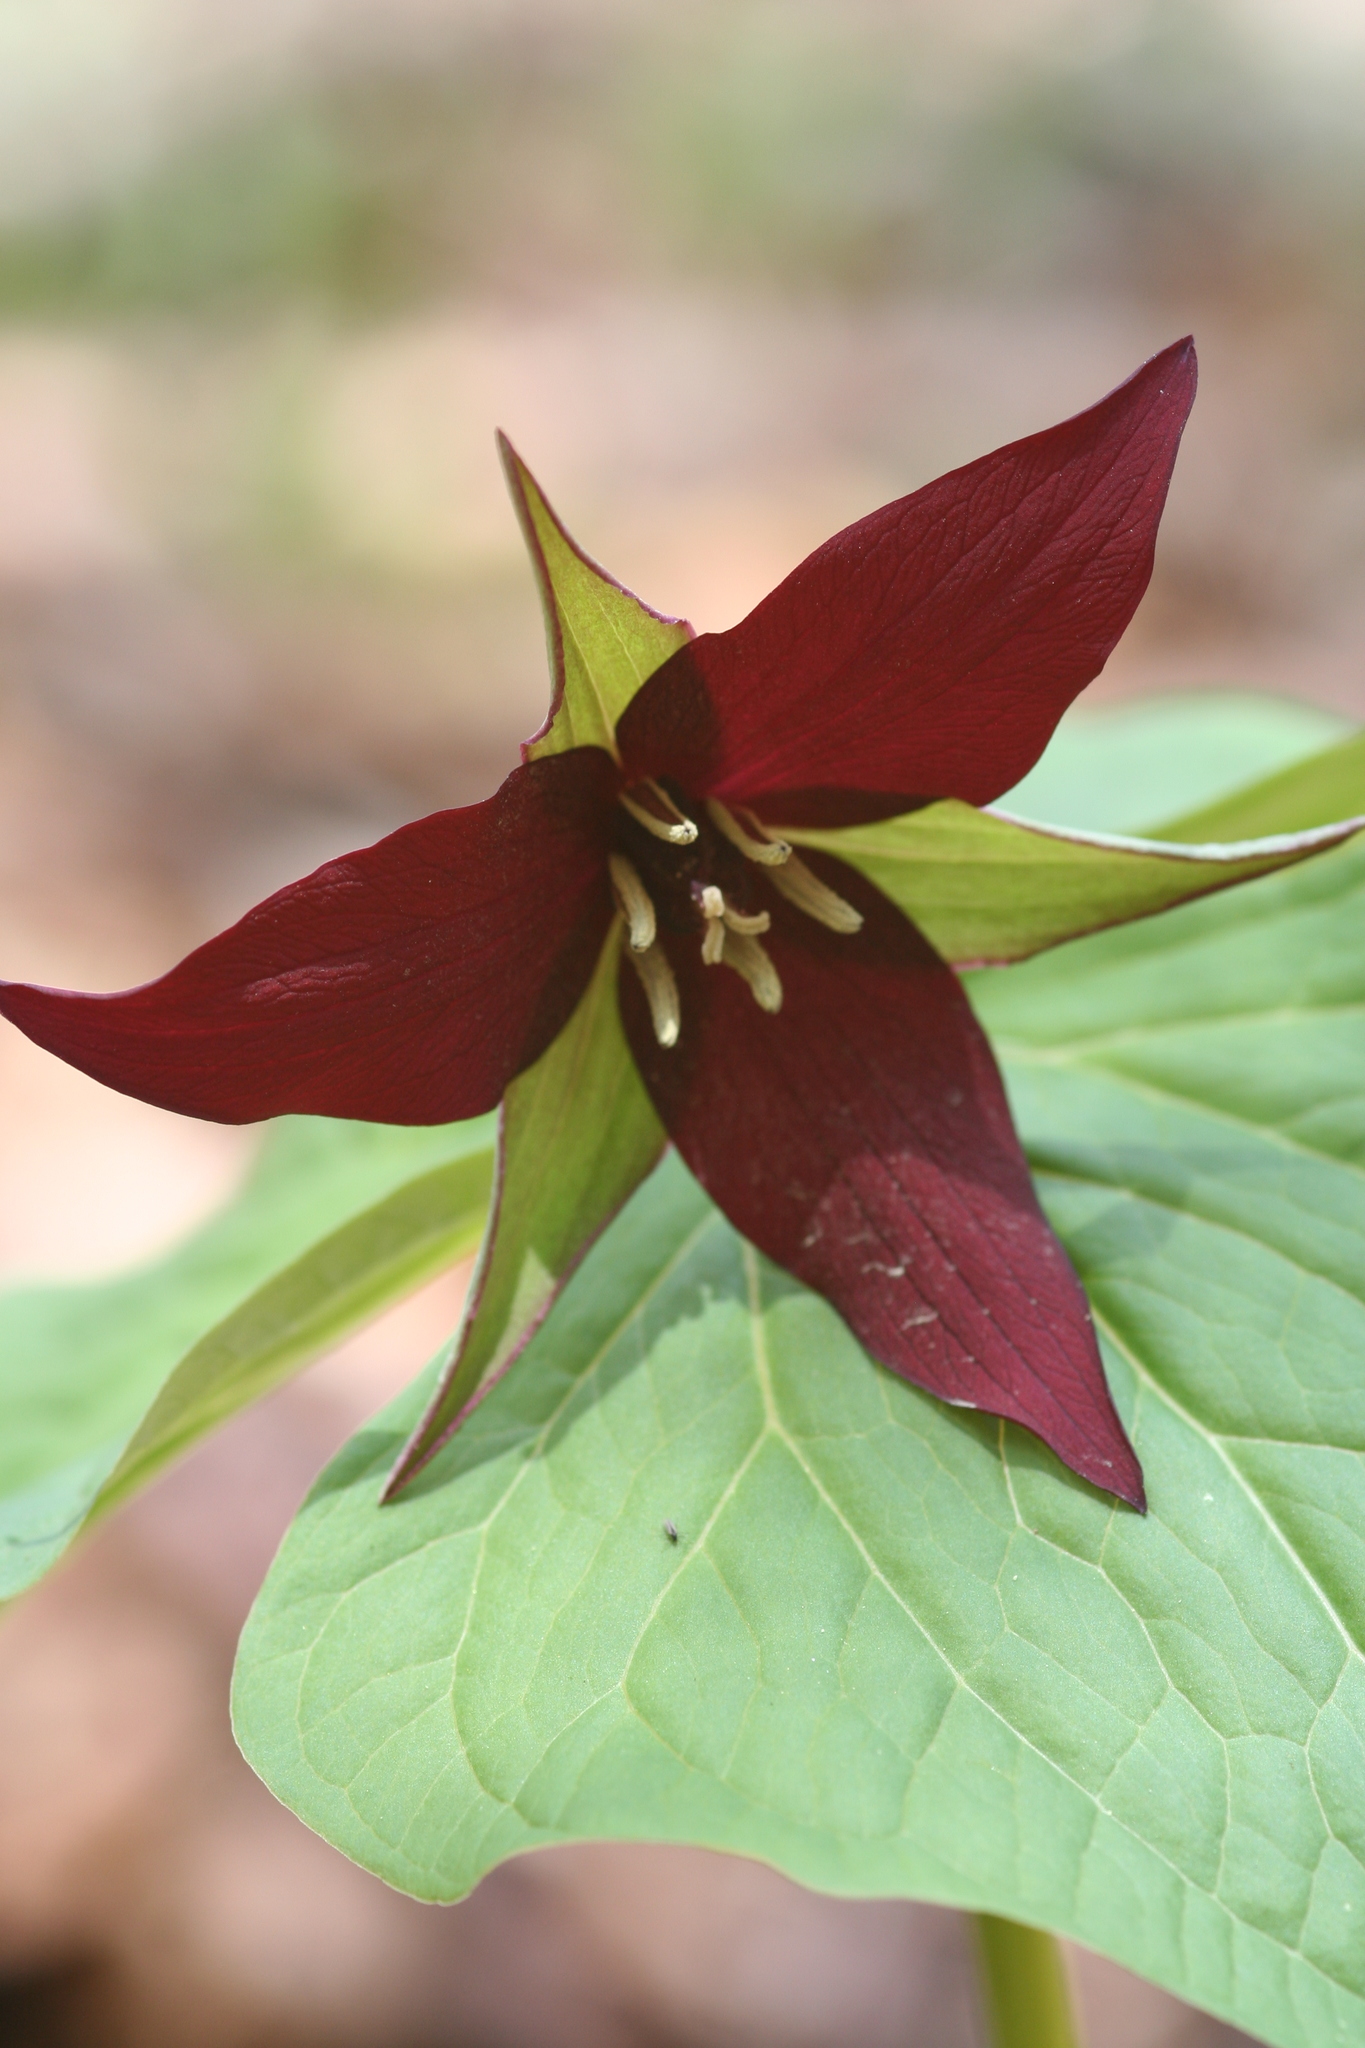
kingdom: Plantae
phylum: Tracheophyta
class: Liliopsida
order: Liliales
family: Melanthiaceae
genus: Trillium
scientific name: Trillium erectum
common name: Purple trillium
